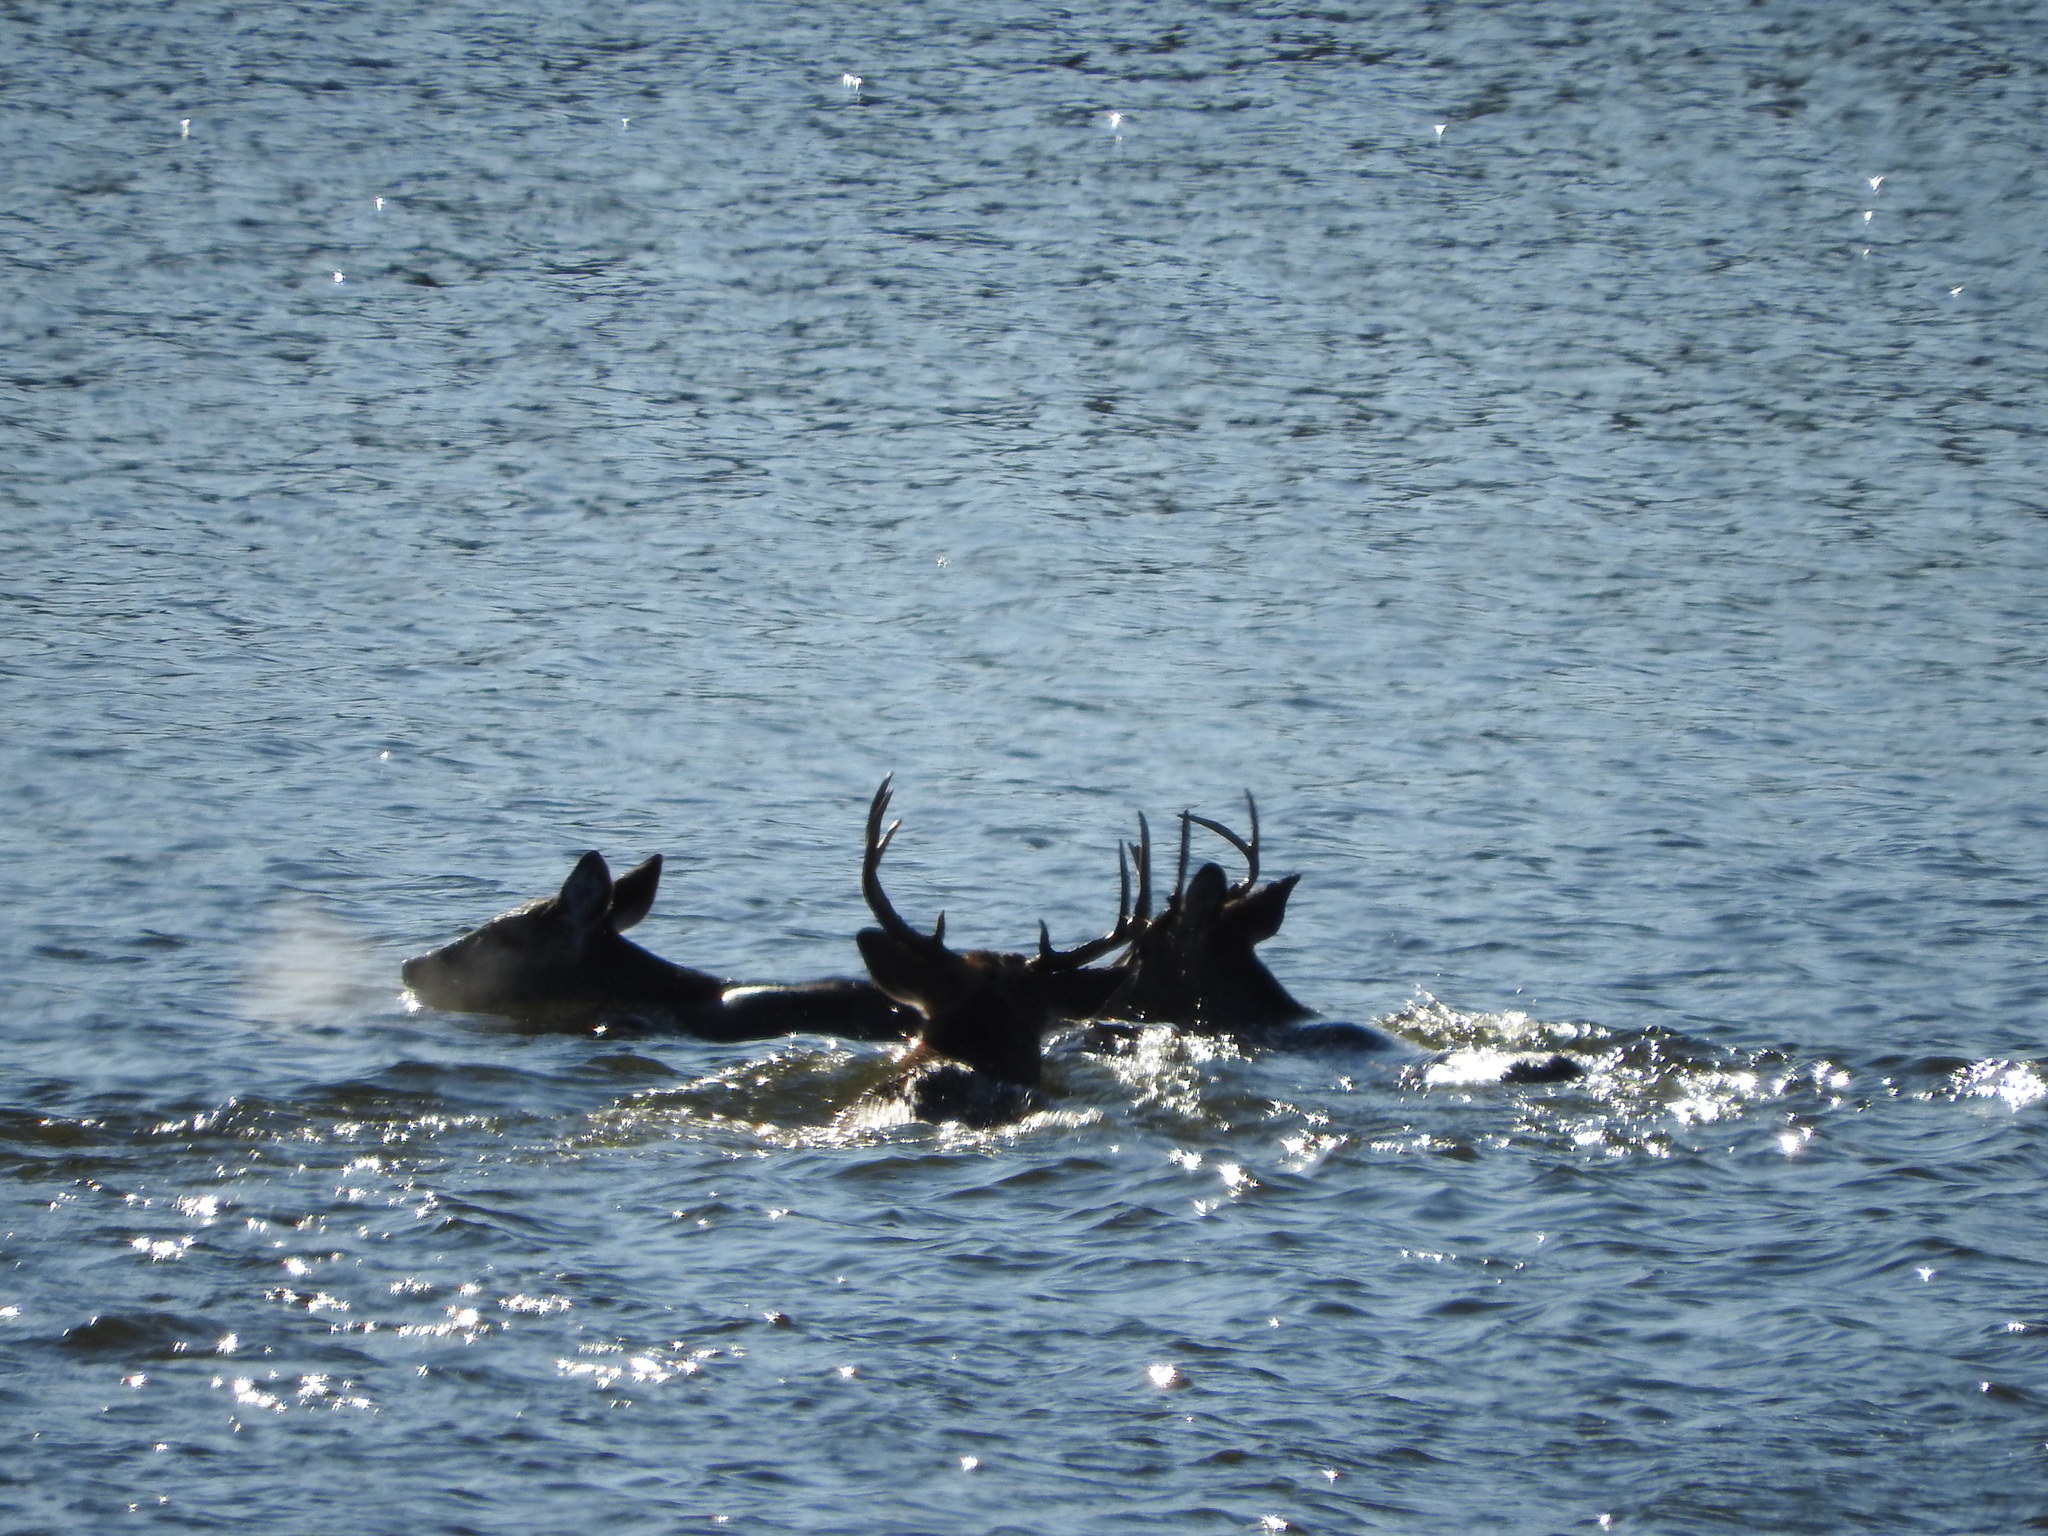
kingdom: Animalia
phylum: Chordata
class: Mammalia
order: Artiodactyla
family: Cervidae
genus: Odocoileus
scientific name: Odocoileus virginianus
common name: White-tailed deer
